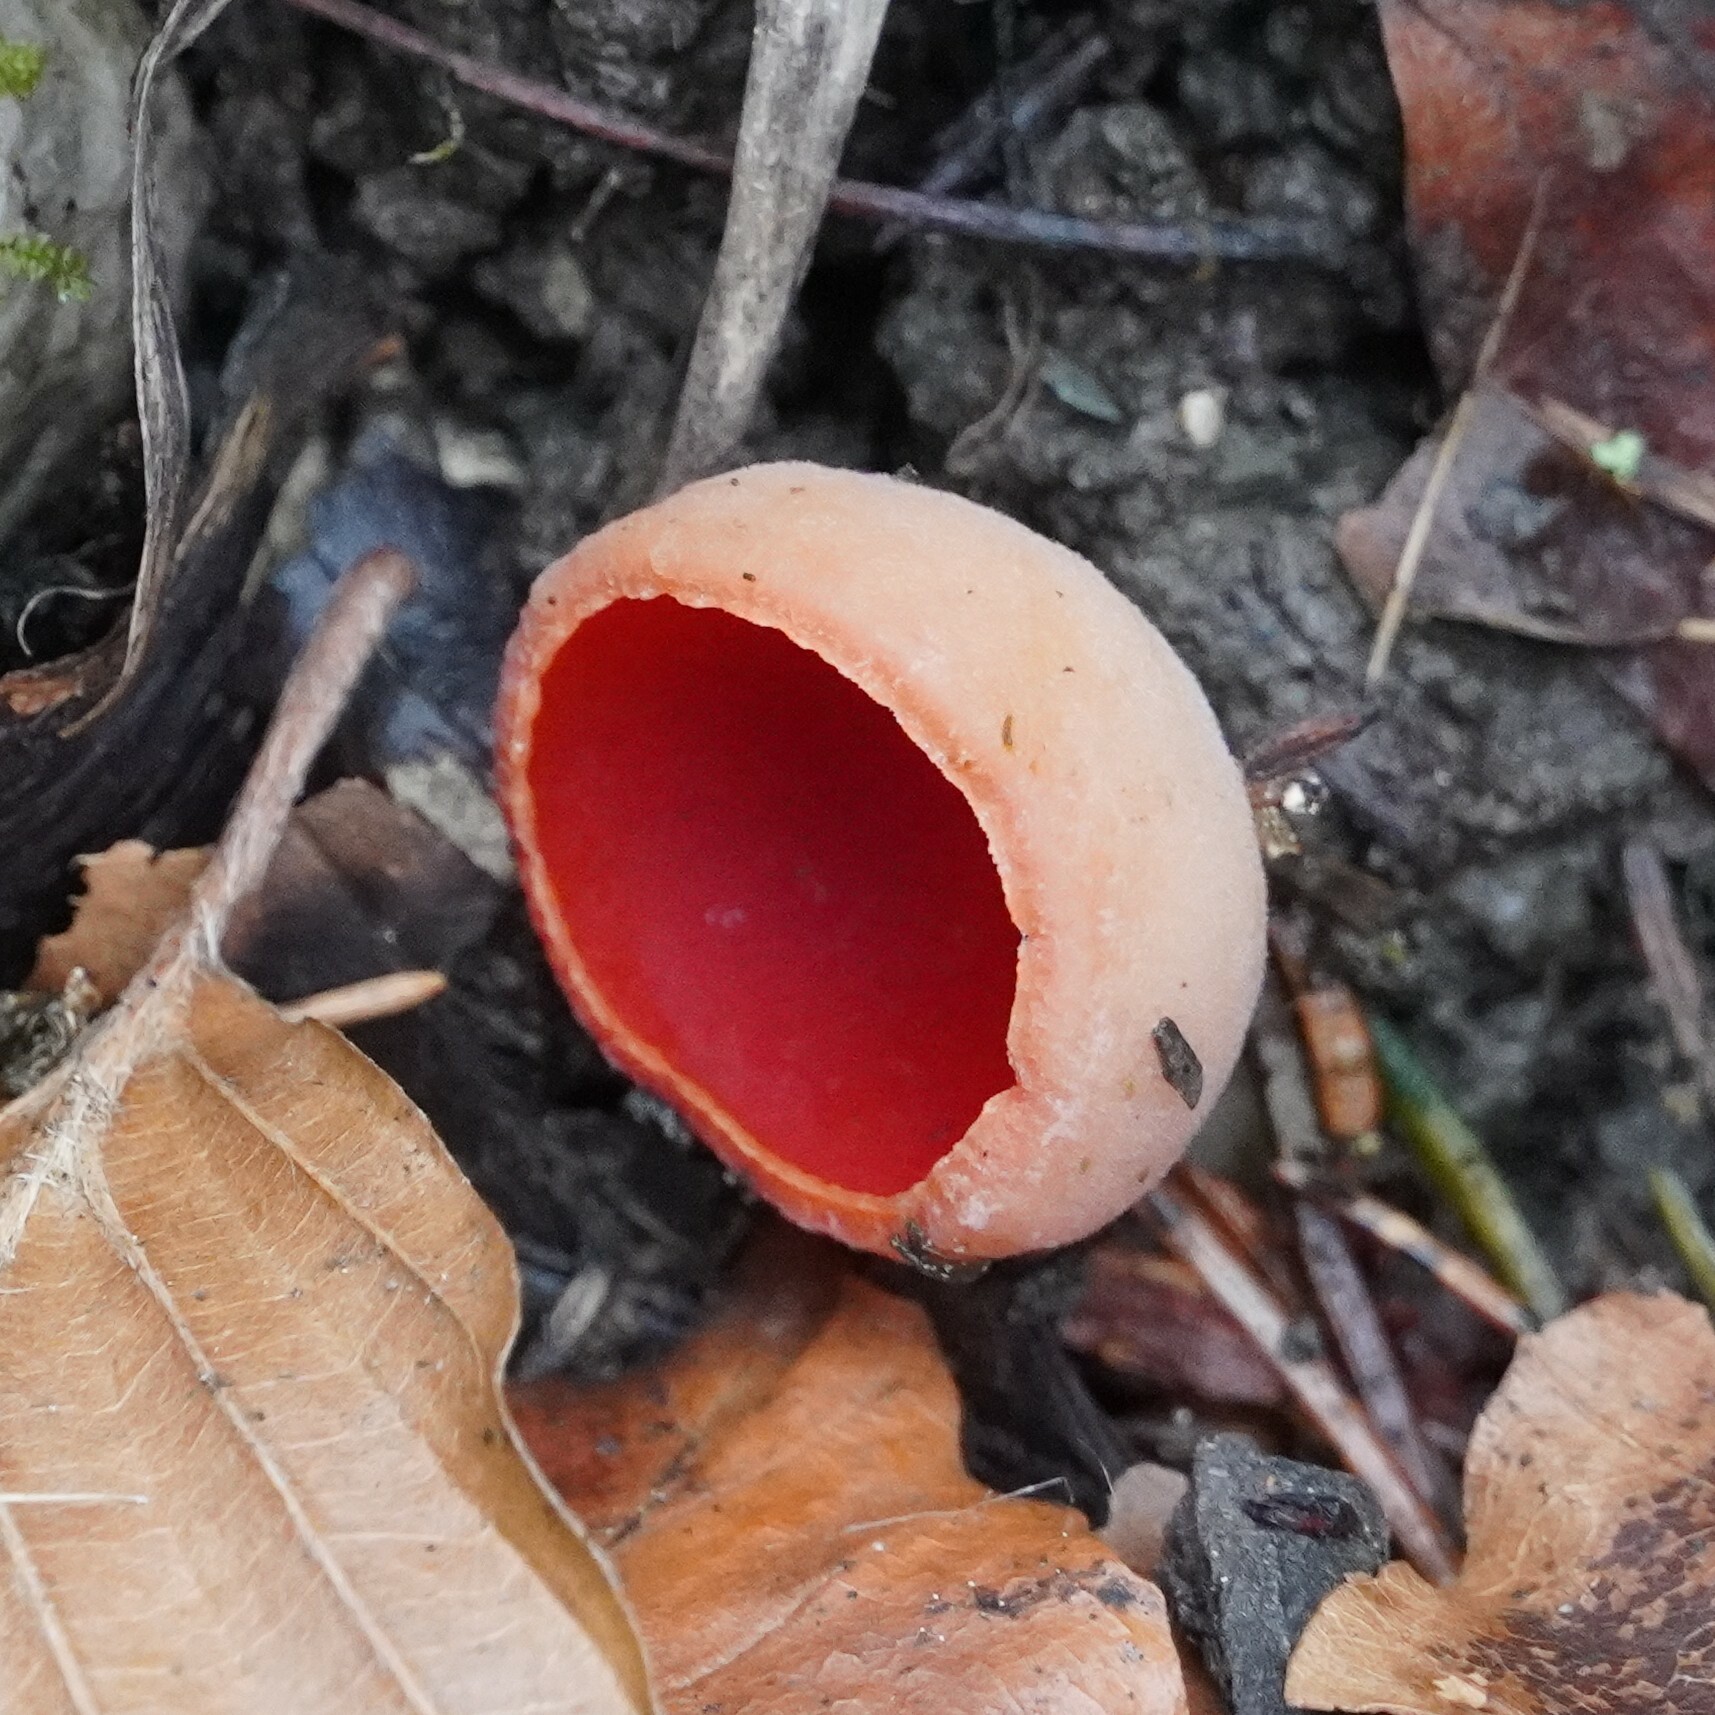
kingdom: Fungi
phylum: Ascomycota
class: Pezizomycetes
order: Pezizales
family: Sarcoscyphaceae
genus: Sarcoscypha
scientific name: Sarcoscypha
